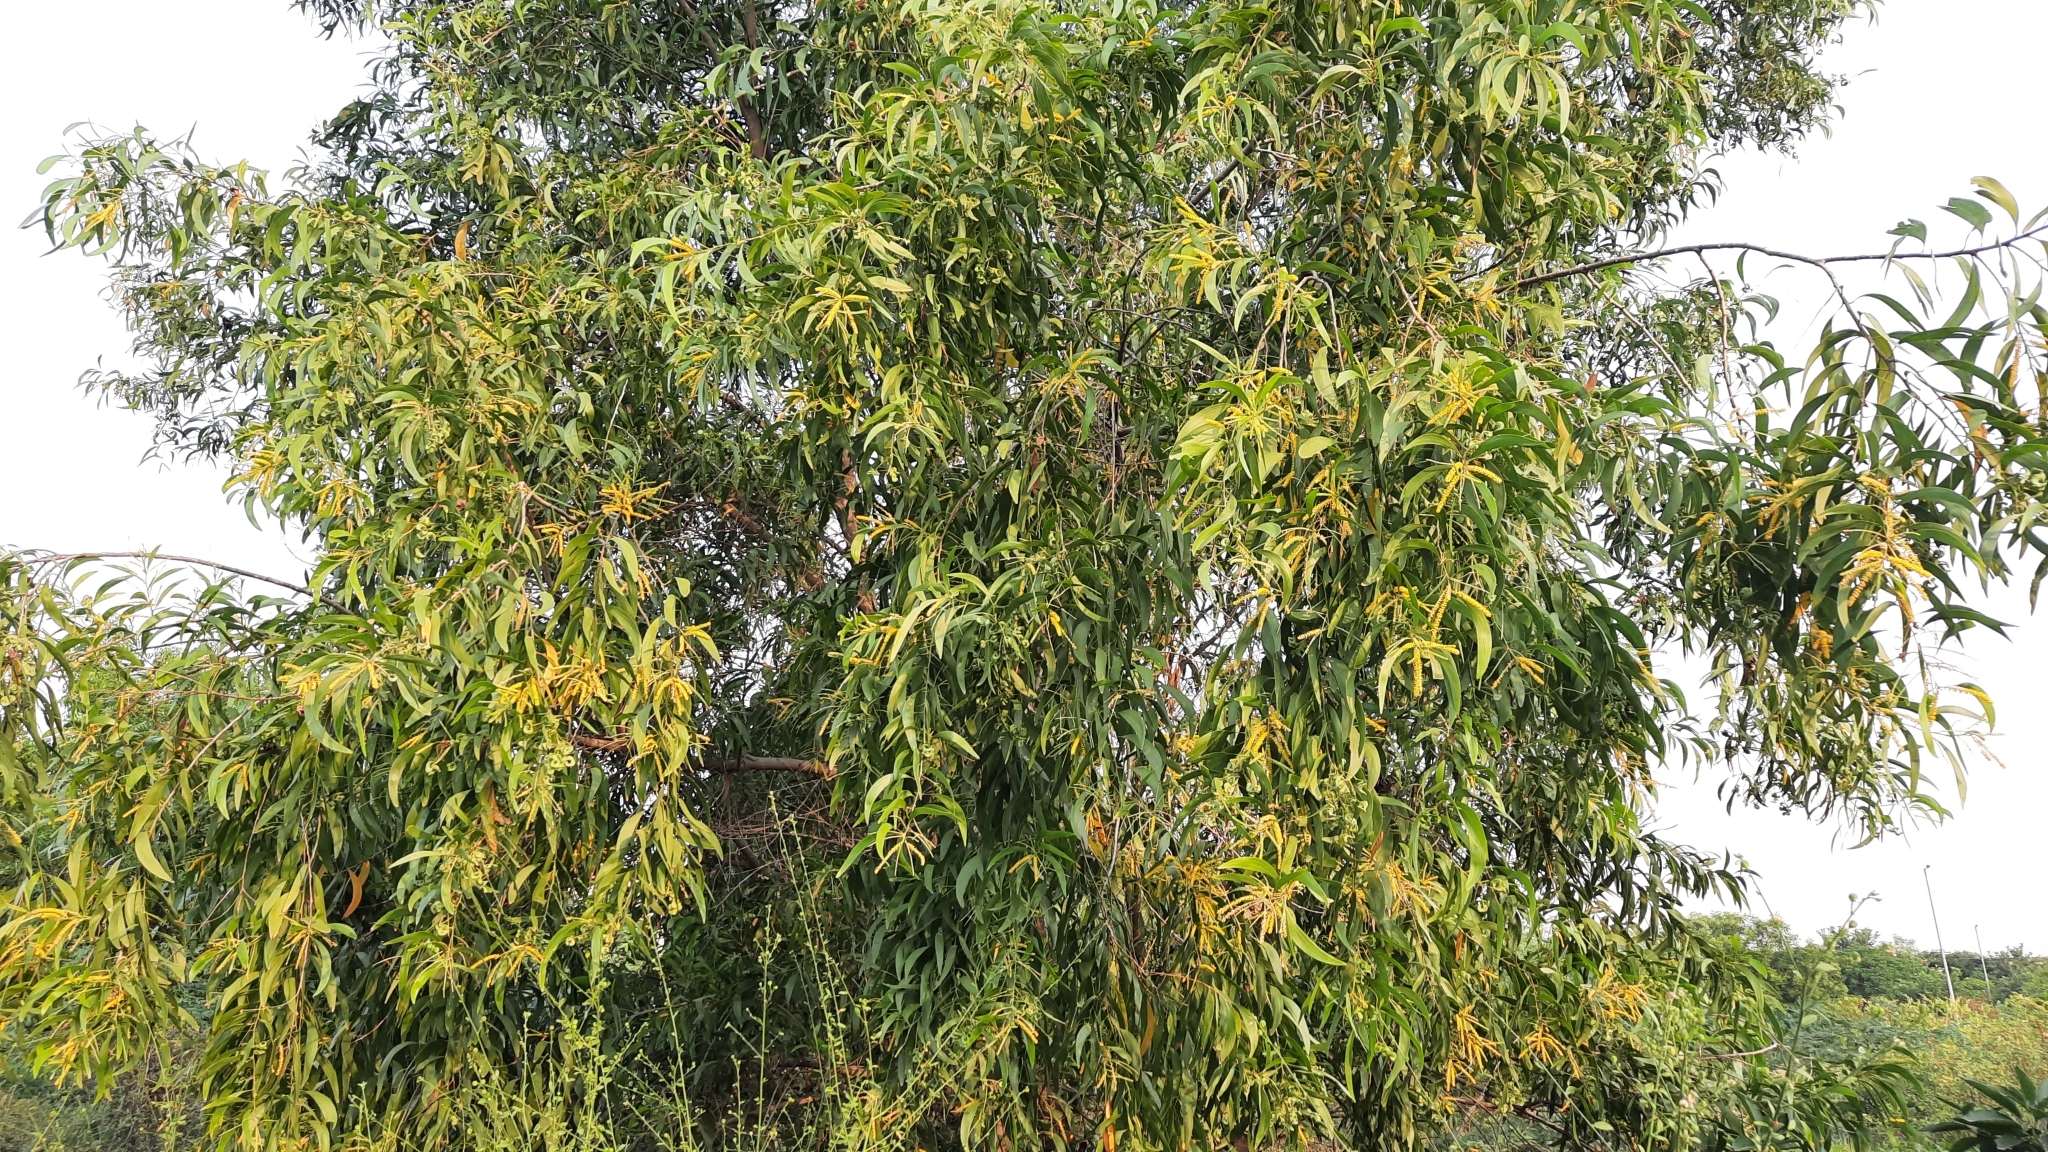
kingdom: Plantae
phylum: Tracheophyta
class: Magnoliopsida
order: Fabales
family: Fabaceae
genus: Acacia
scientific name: Acacia auriculiformis
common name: Earleaf acacia
